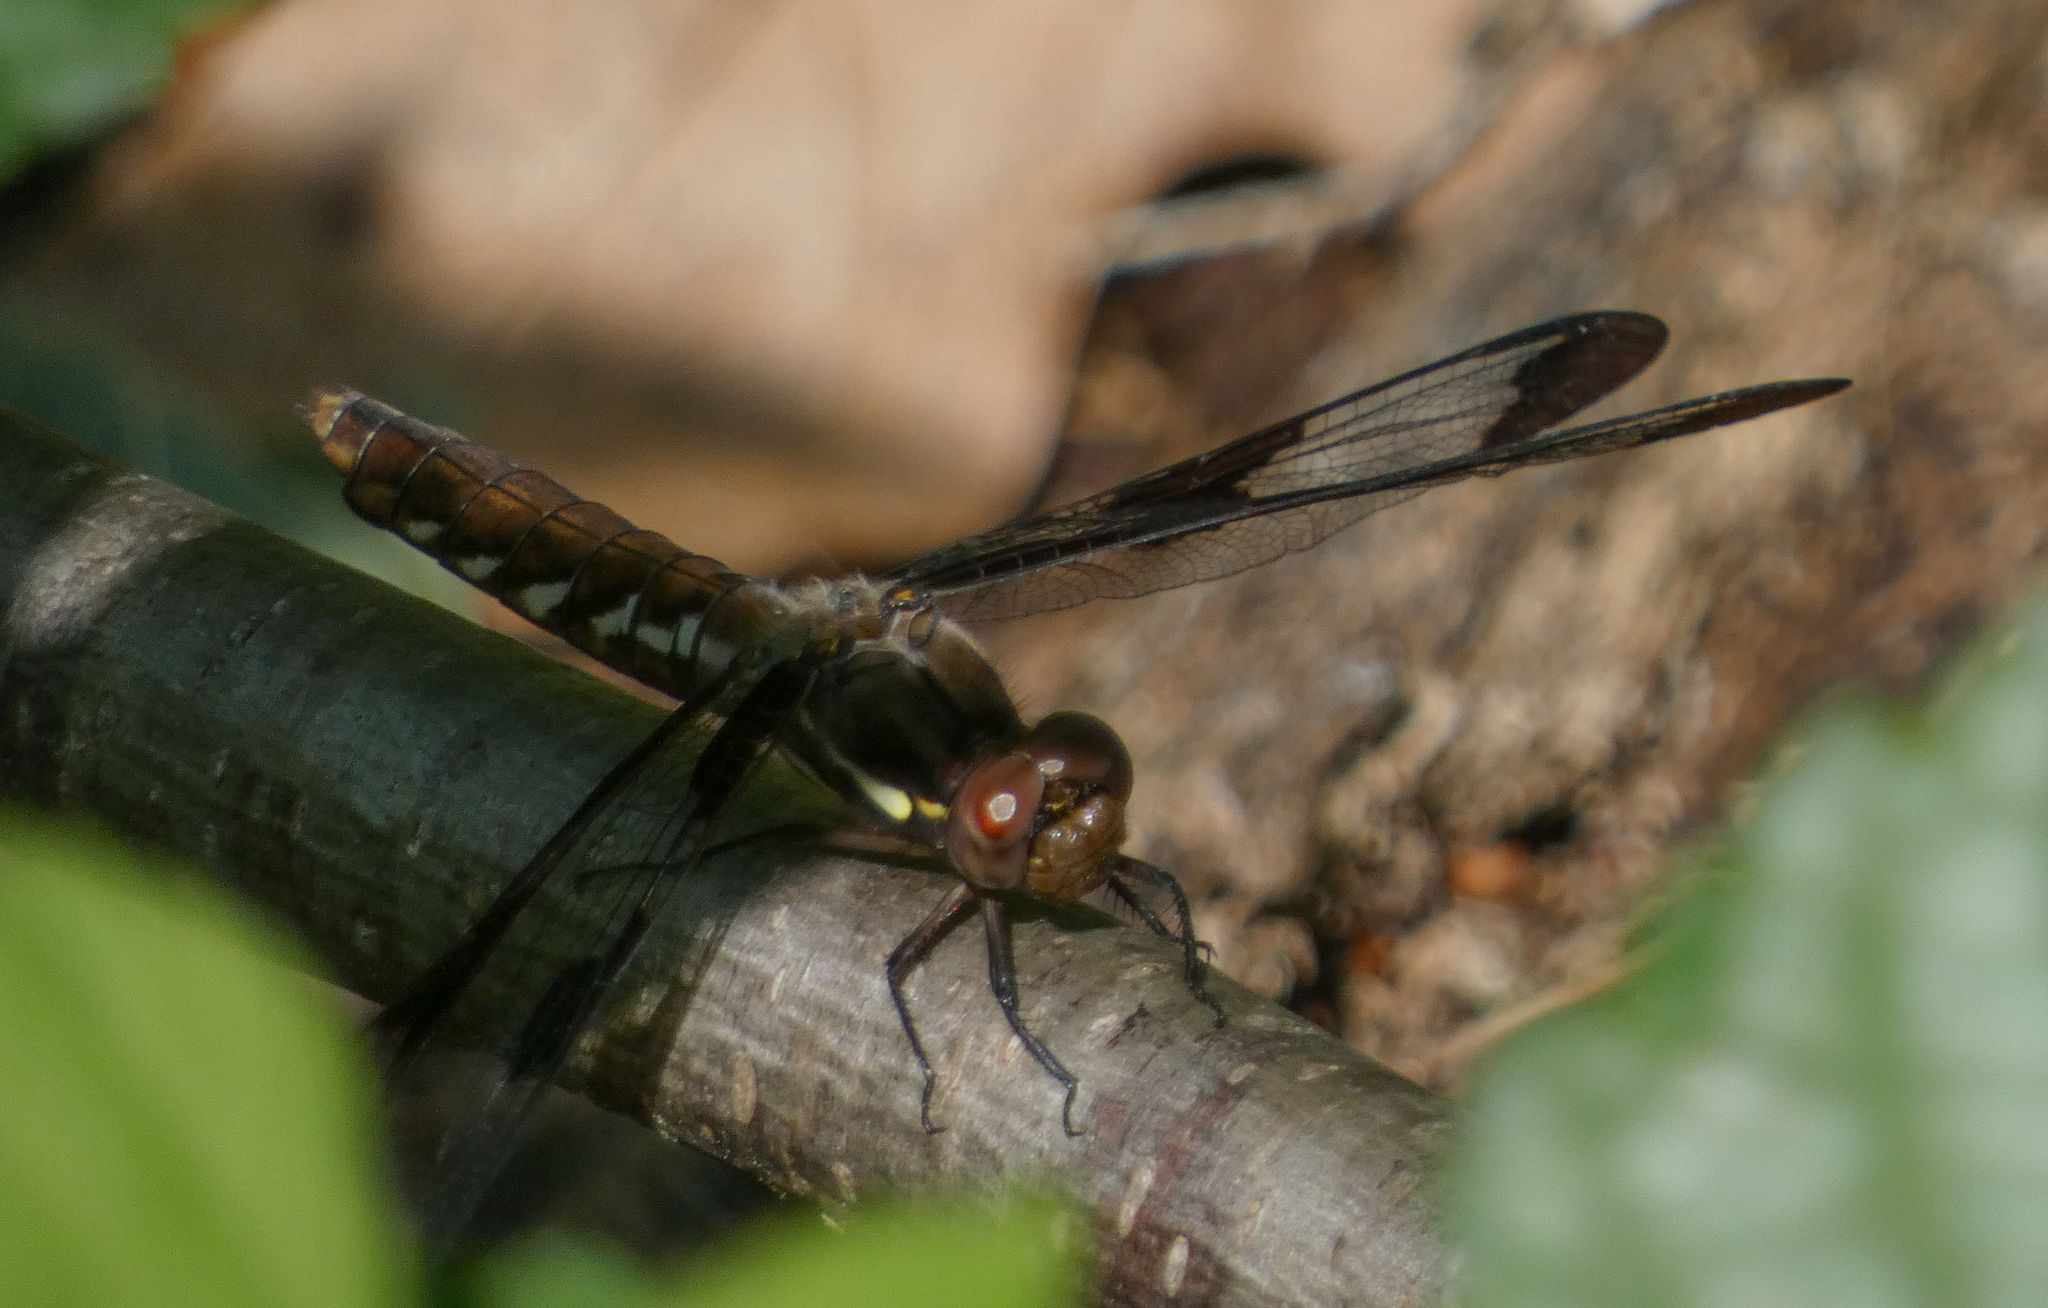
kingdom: Animalia
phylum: Arthropoda
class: Insecta
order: Odonata
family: Libellulidae
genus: Plathemis
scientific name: Plathemis lydia
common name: Common whitetail
